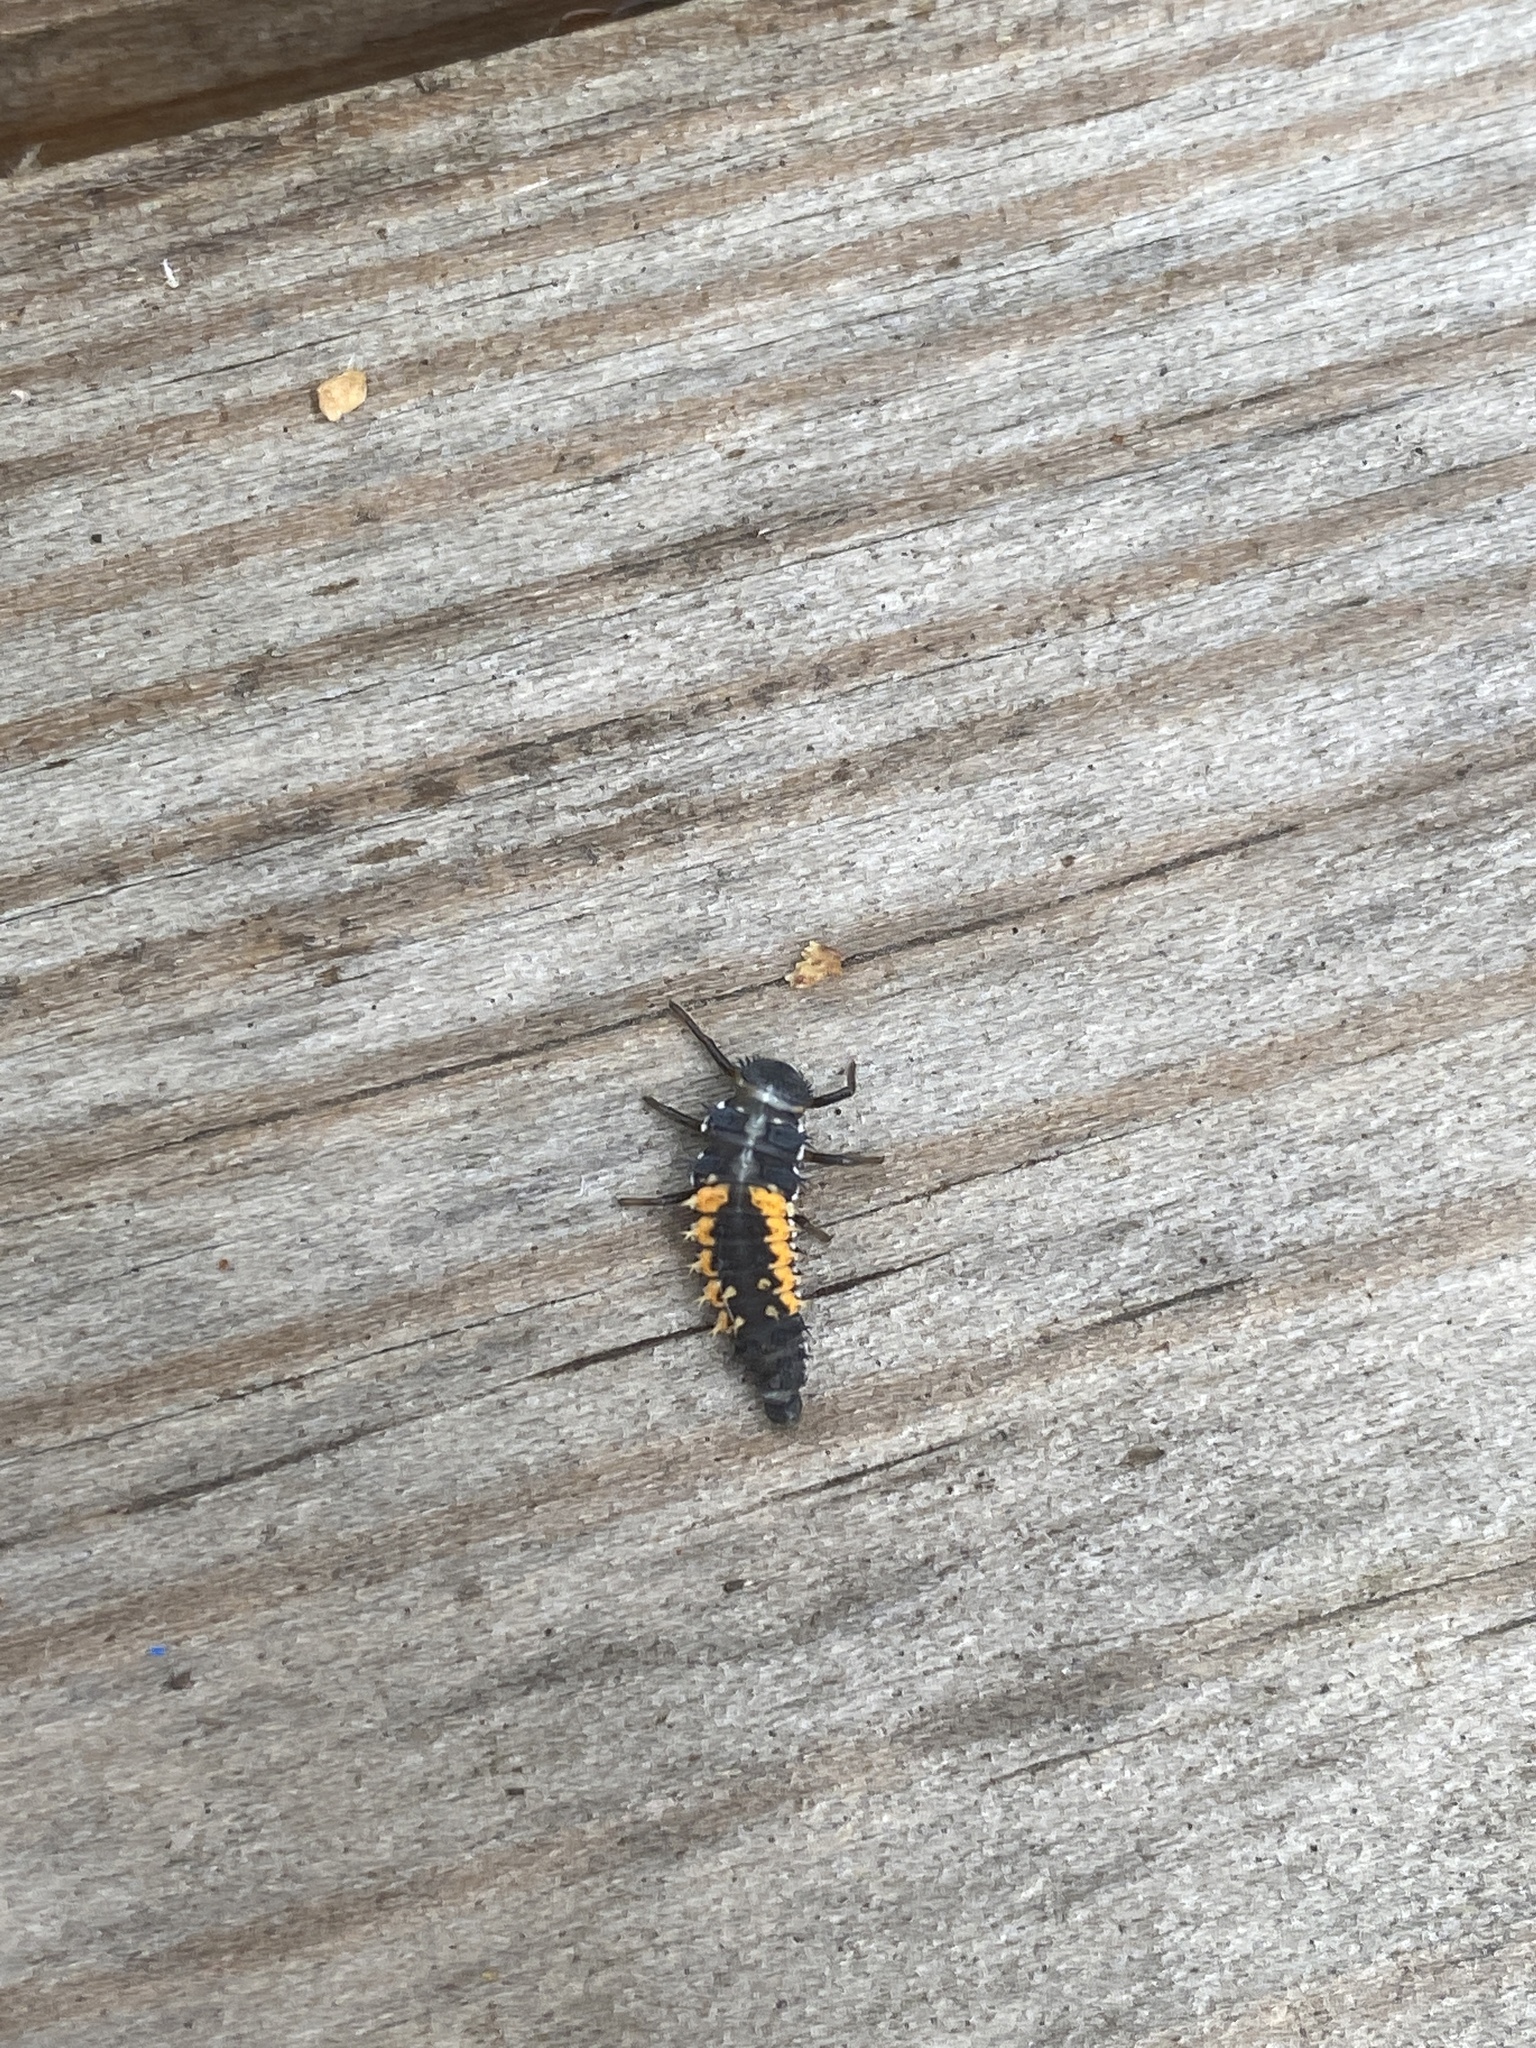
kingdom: Animalia
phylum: Arthropoda
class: Insecta
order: Coleoptera
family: Coccinellidae
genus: Harmonia
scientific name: Harmonia axyridis
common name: Harlequin ladybird
